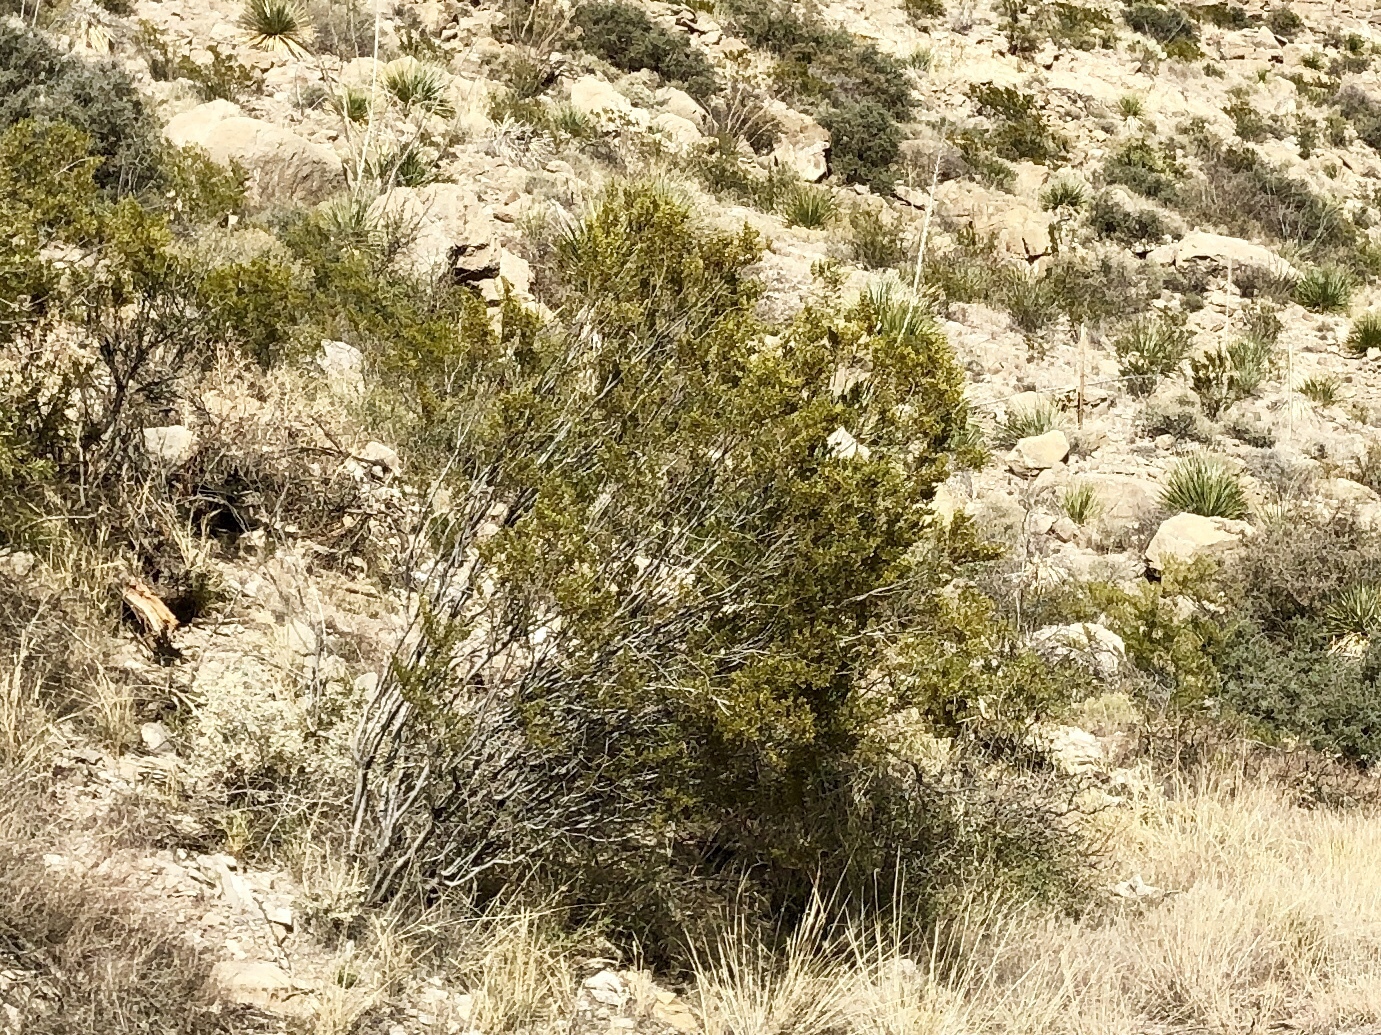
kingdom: Plantae
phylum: Tracheophyta
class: Magnoliopsida
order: Zygophyllales
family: Zygophyllaceae
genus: Larrea
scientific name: Larrea tridentata
